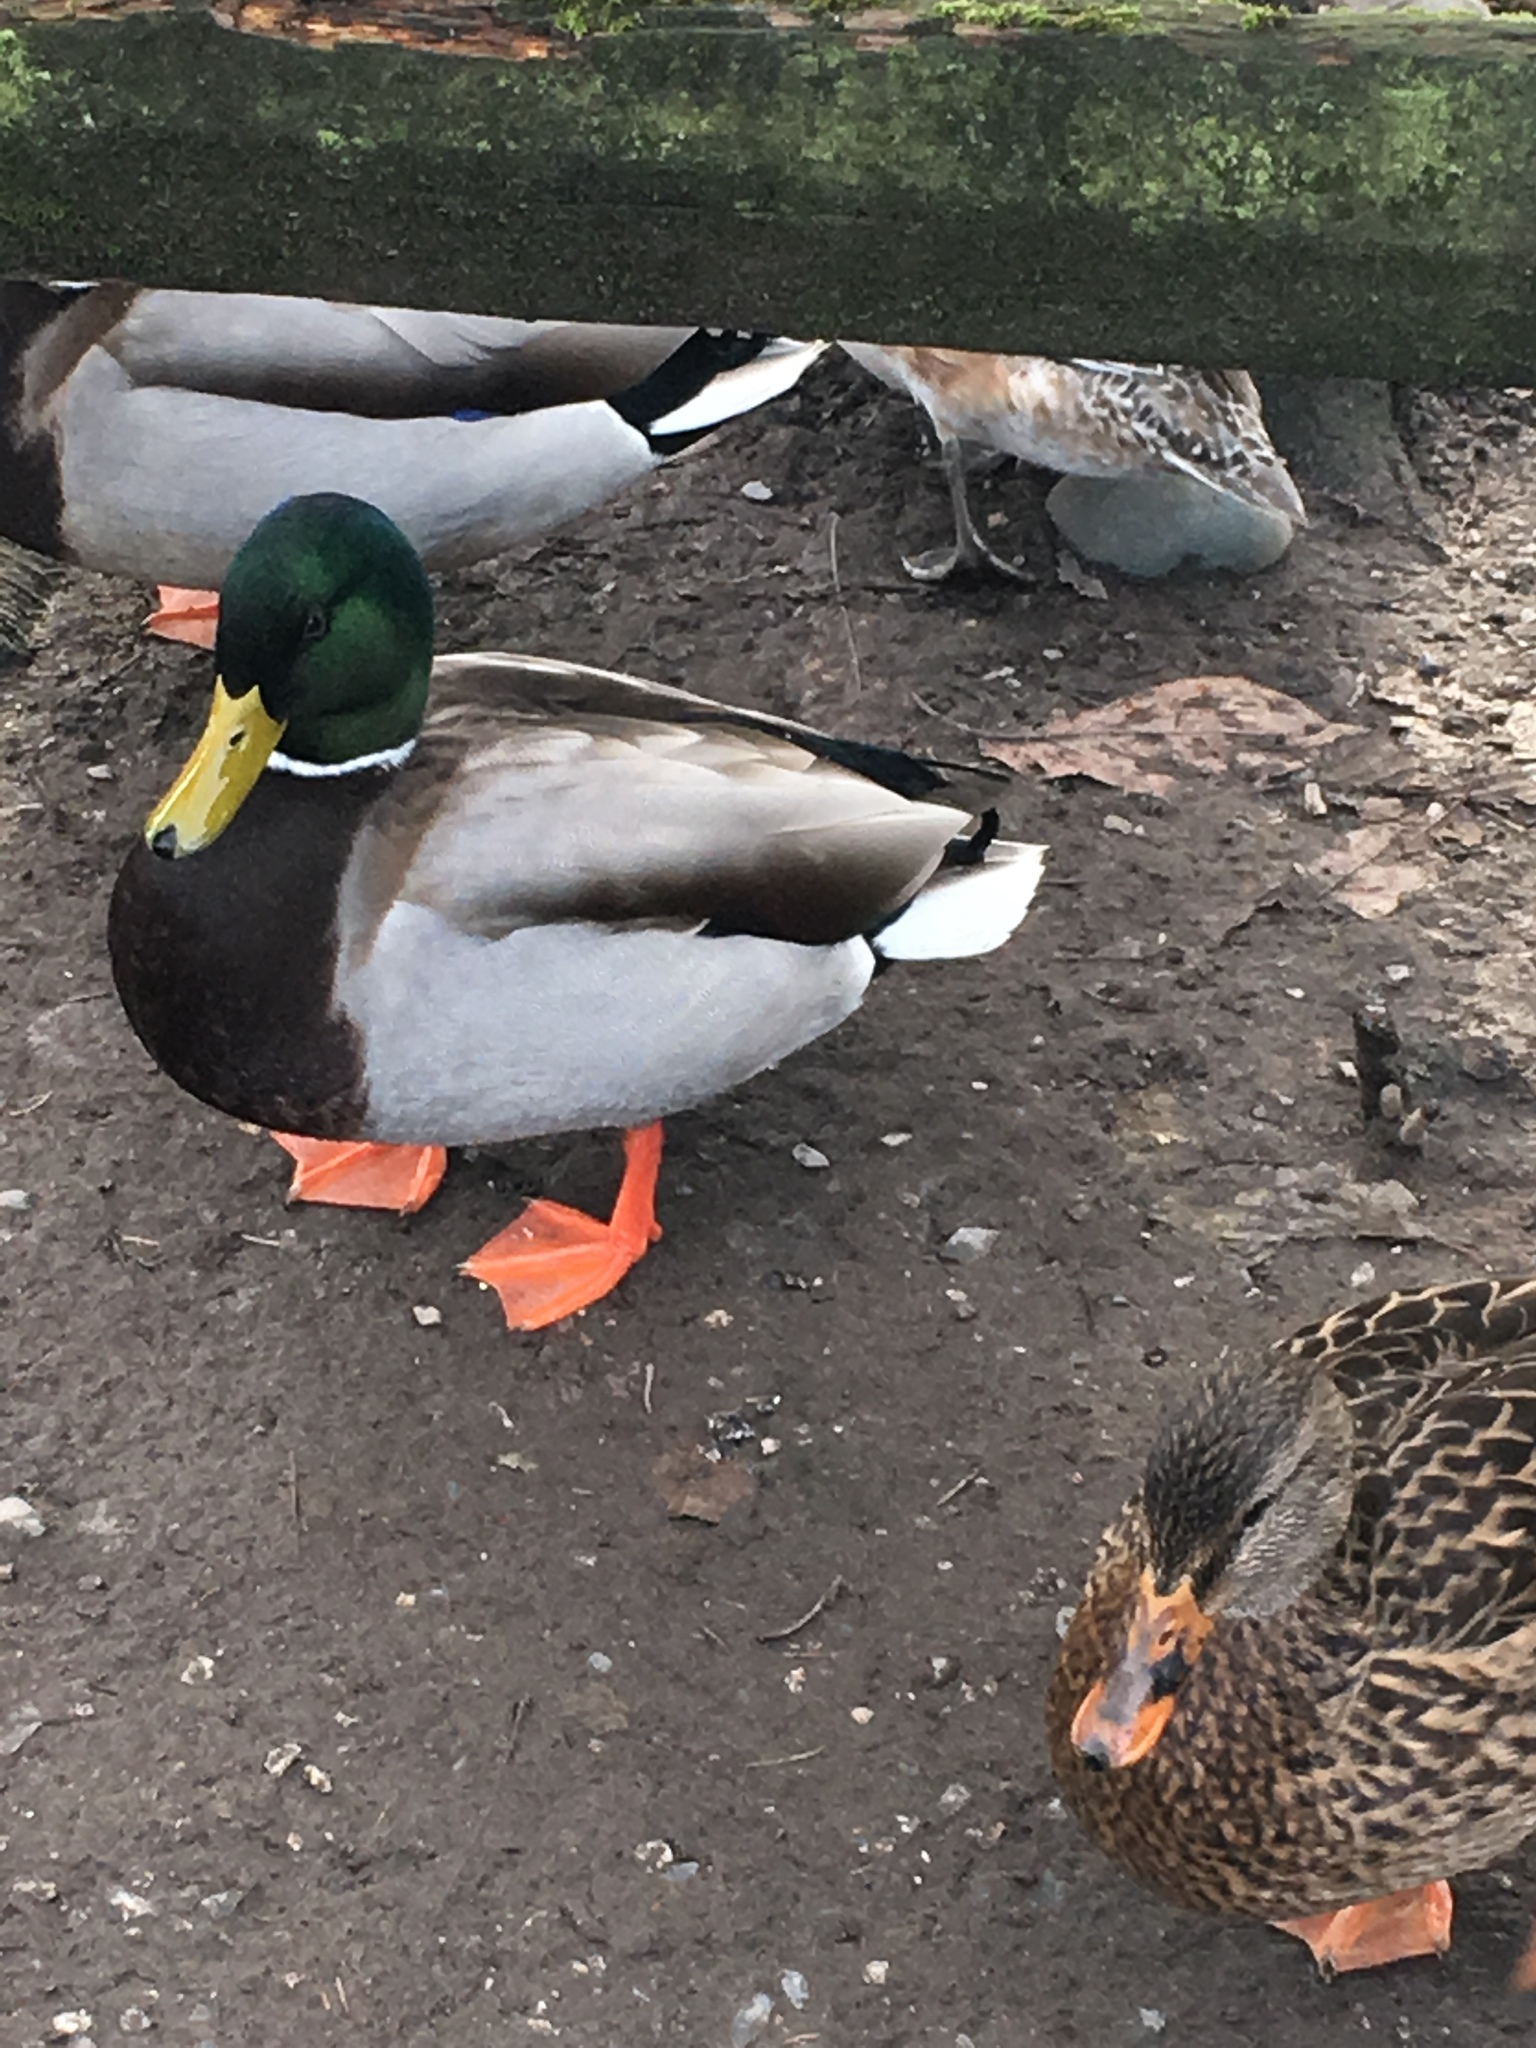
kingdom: Animalia
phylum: Chordata
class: Aves
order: Anseriformes
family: Anatidae
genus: Anas
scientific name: Anas platyrhynchos
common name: Mallard
